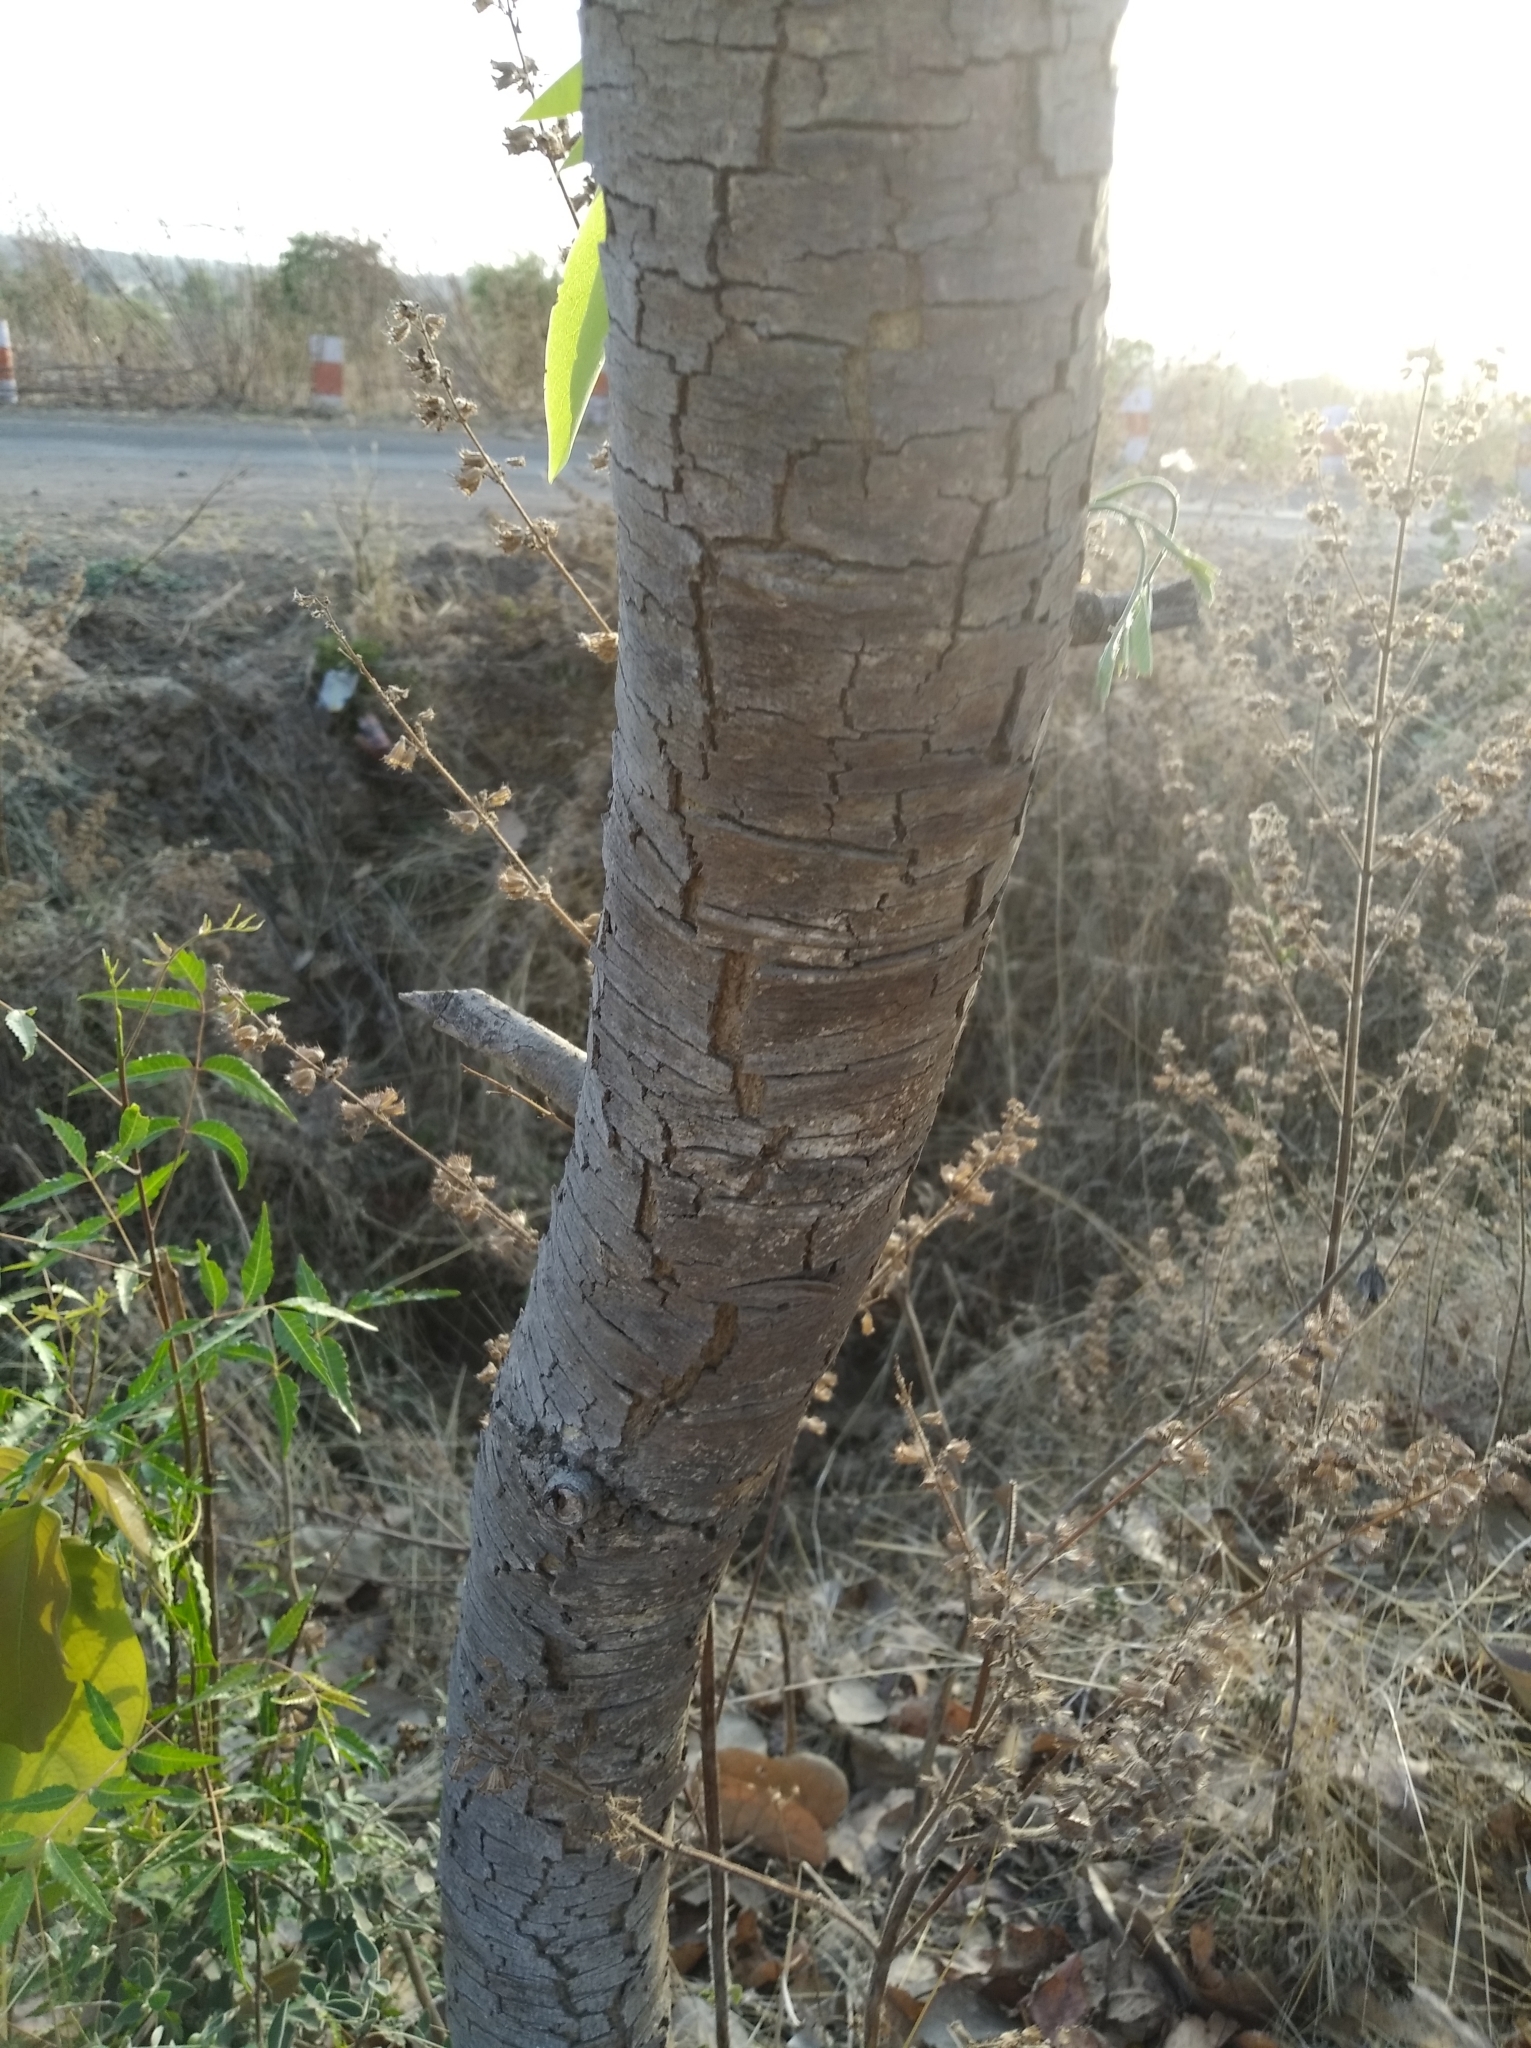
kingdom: Plantae
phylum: Tracheophyta
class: Magnoliopsida
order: Fabales
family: Fabaceae
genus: Cassia
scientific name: Cassia fistula
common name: Golden shower
